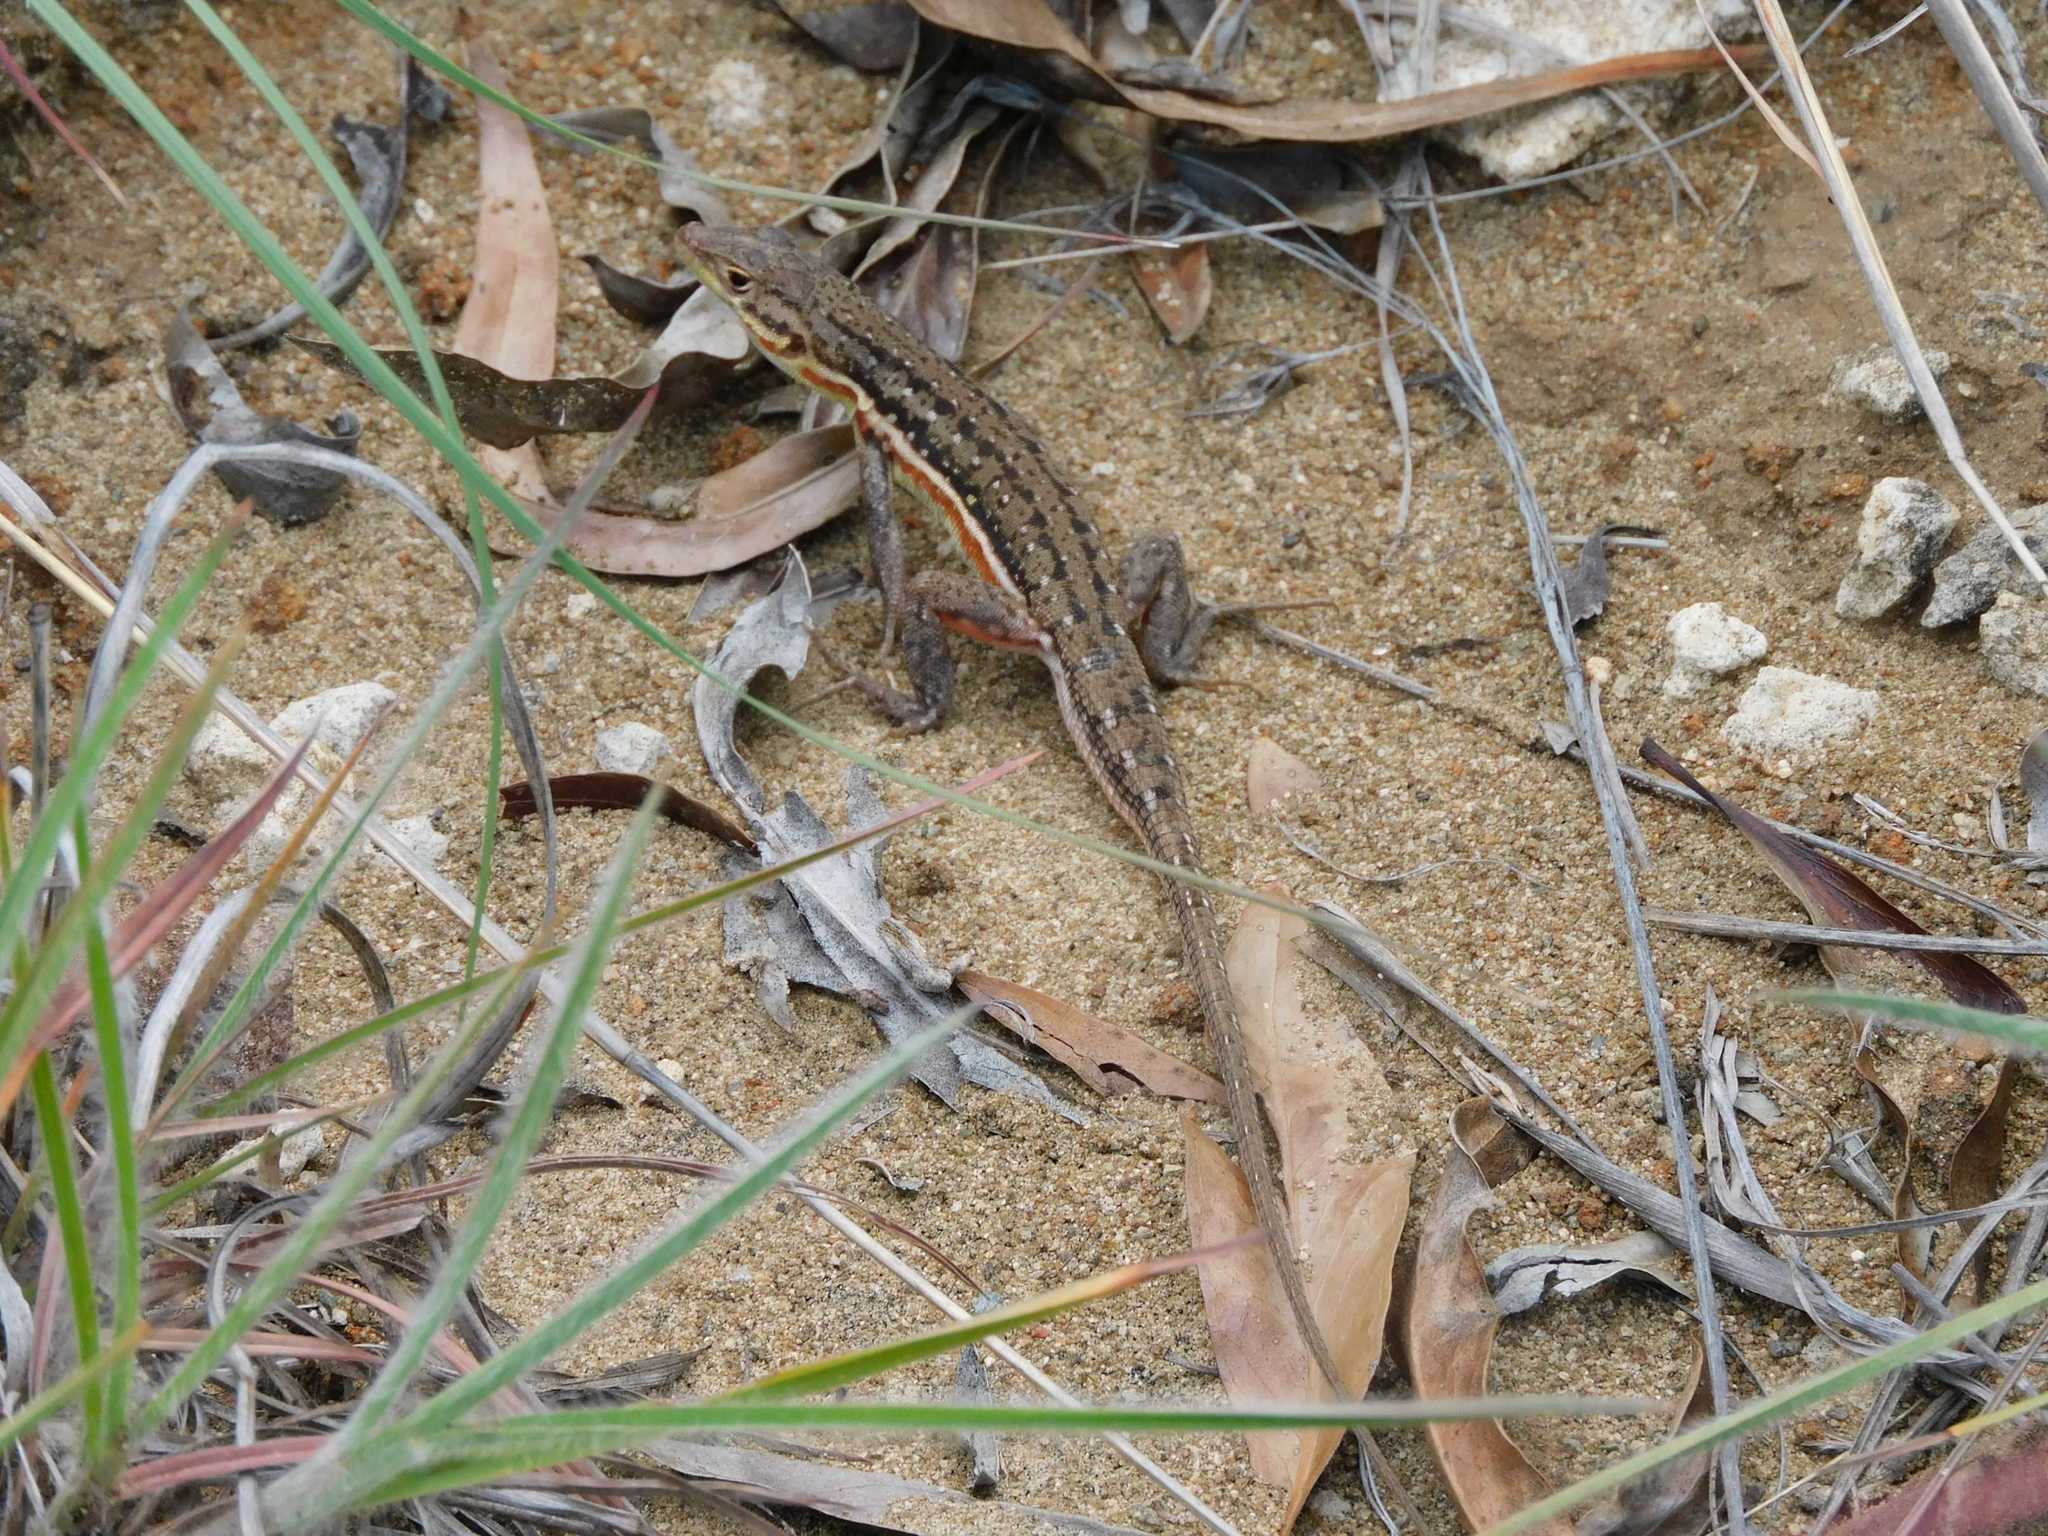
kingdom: Animalia
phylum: Chordata
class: Squamata
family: Lacertidae
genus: Pedioplanis
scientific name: Pedioplanis lineoocellata
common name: Spotted sand lizard
